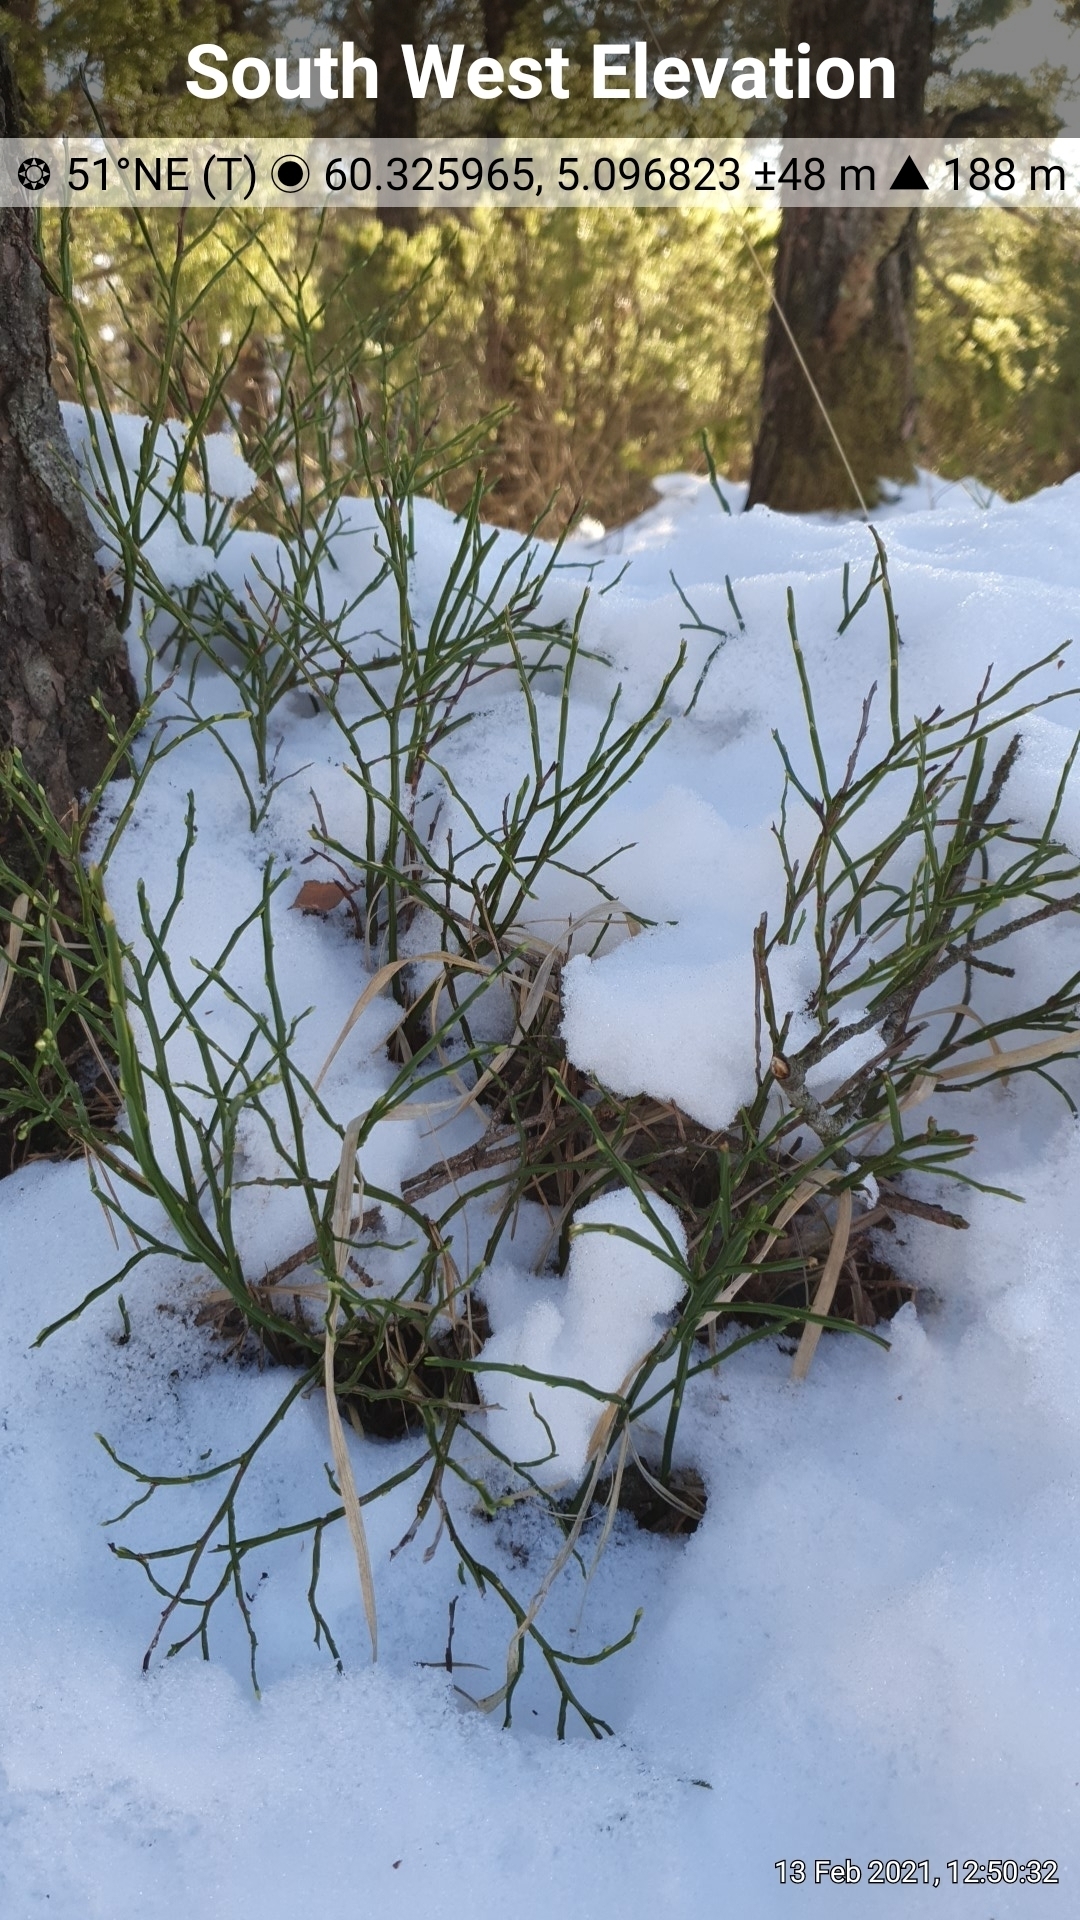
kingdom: Plantae
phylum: Tracheophyta
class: Magnoliopsida
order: Ericales
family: Ericaceae
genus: Vaccinium
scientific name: Vaccinium myrtillus
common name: Bilberry
